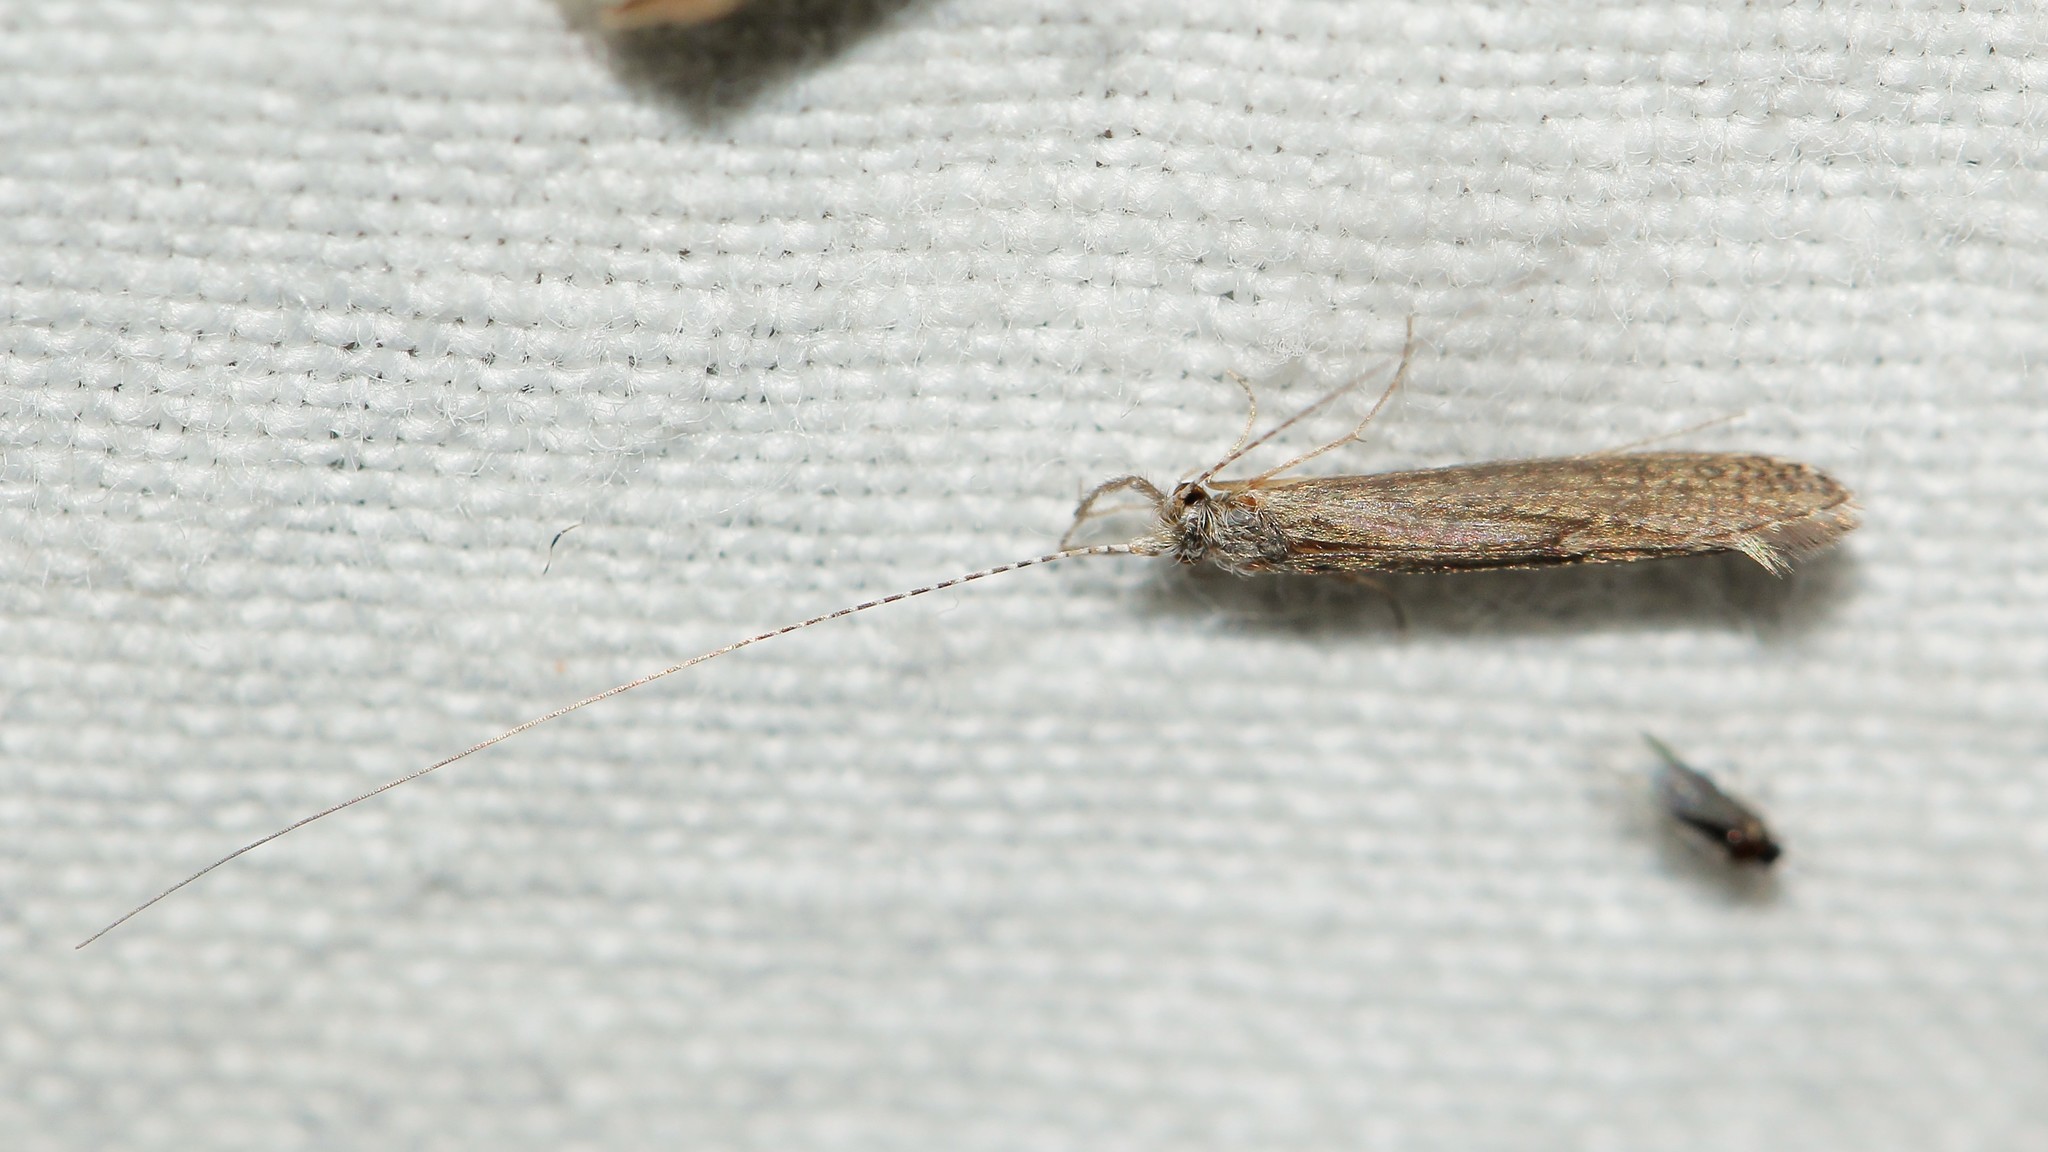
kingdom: Animalia
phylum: Arthropoda
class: Insecta
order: Trichoptera
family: Leptoceridae
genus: Leptocerus
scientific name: Leptocerus tineiformis
